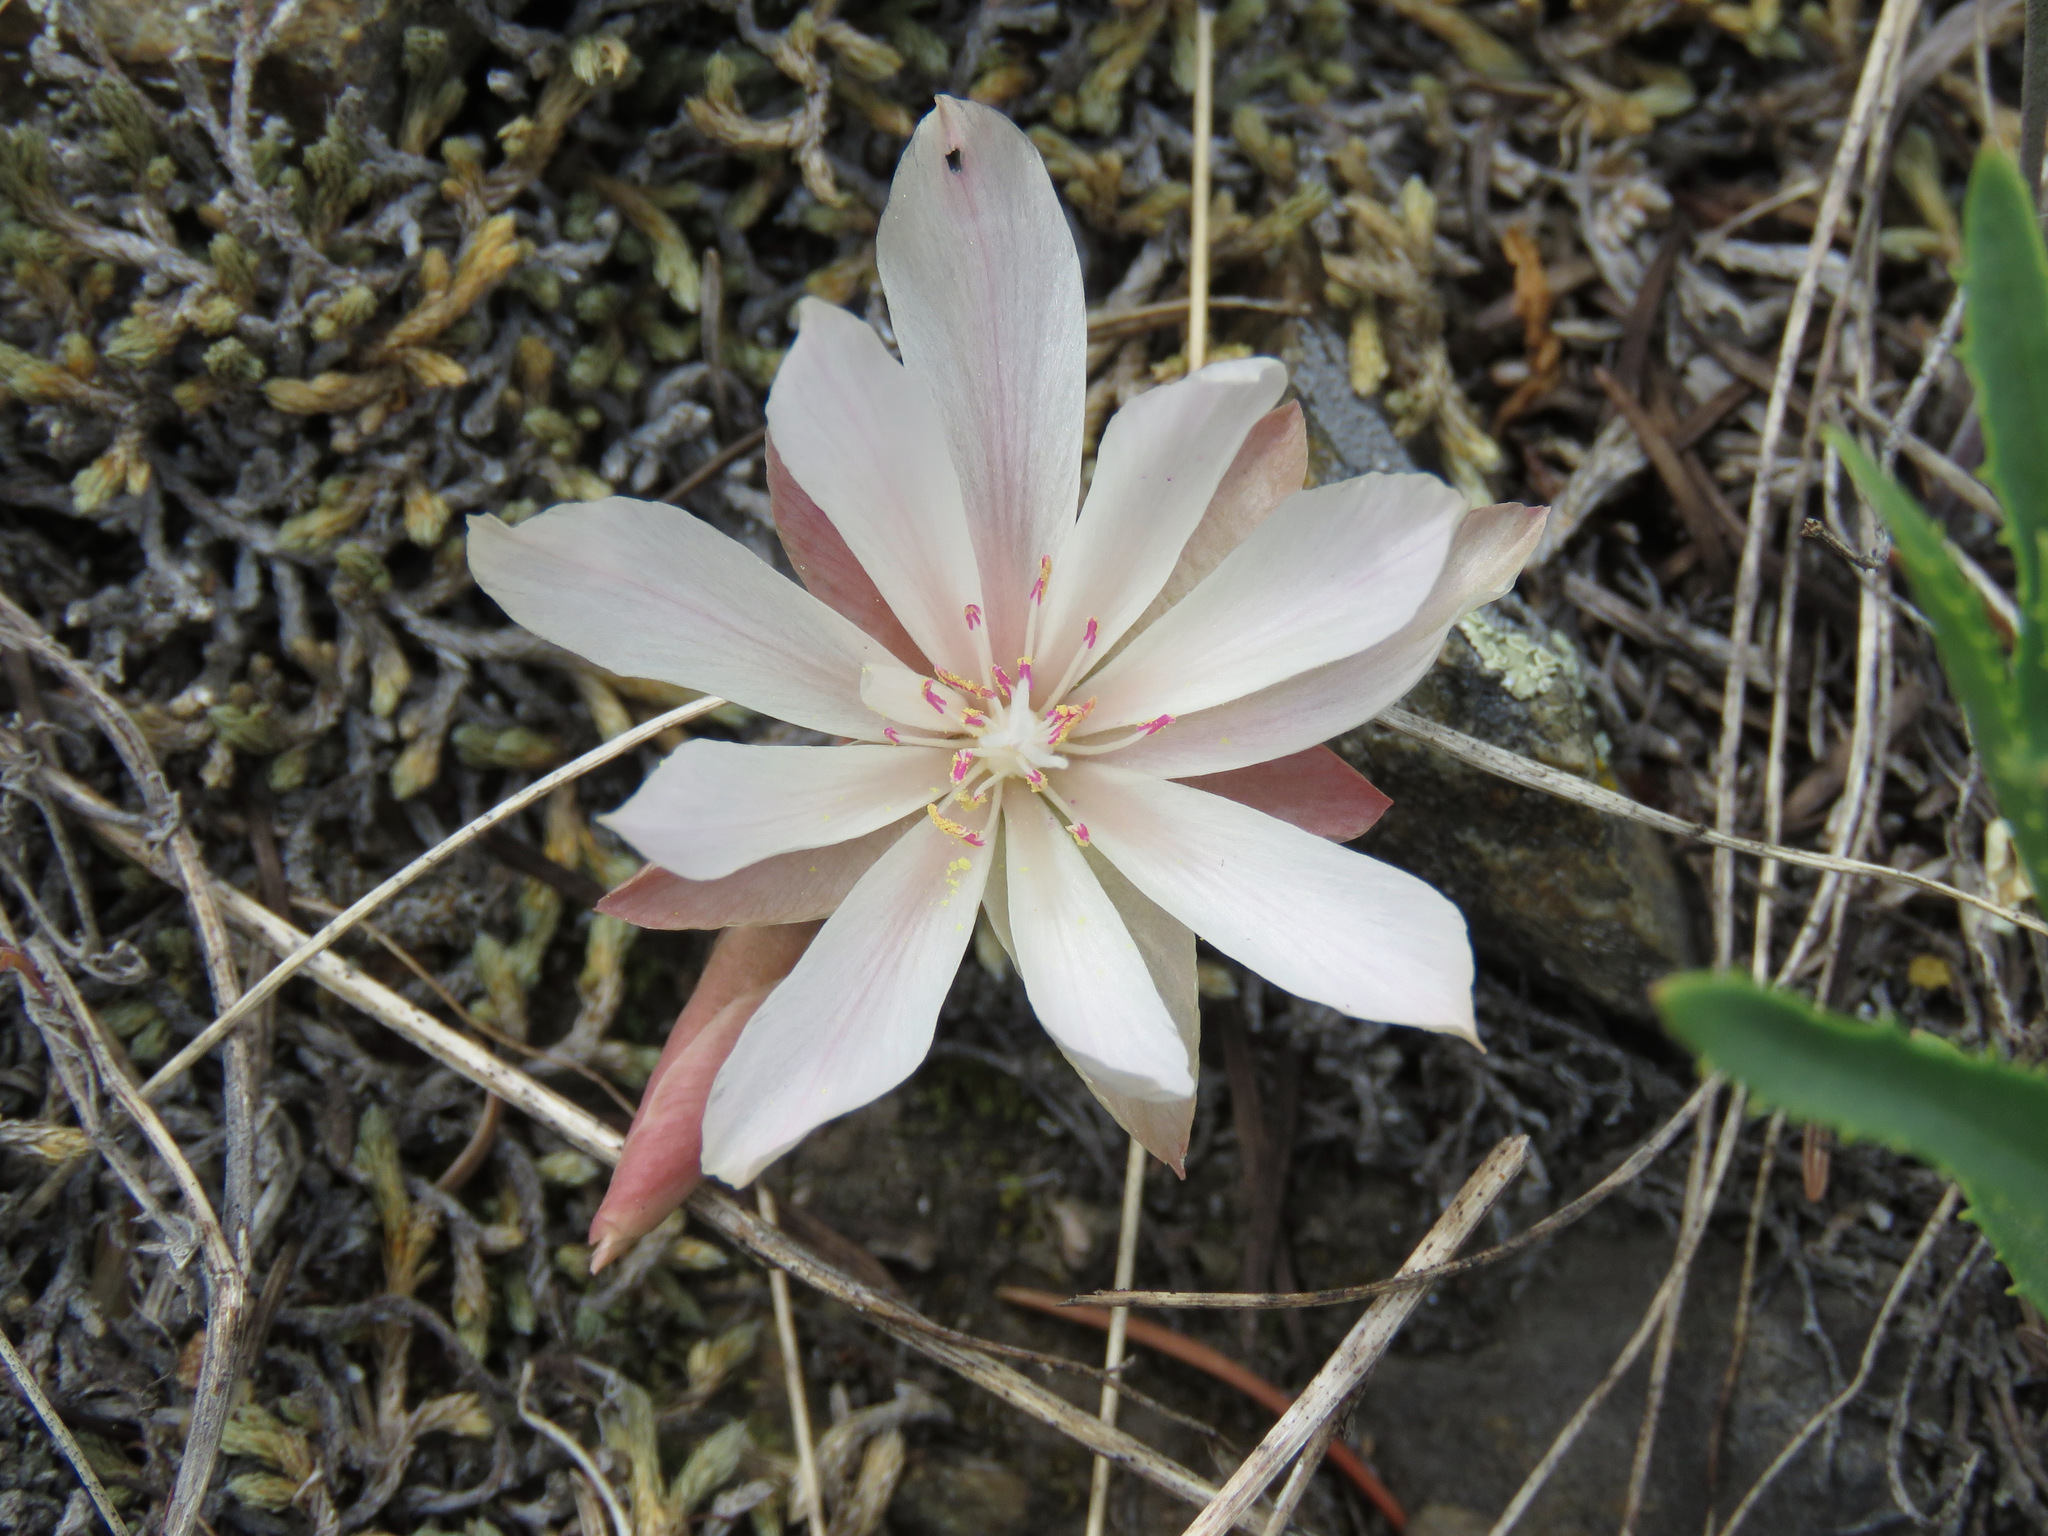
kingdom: Plantae
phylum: Tracheophyta
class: Magnoliopsida
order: Caryophyllales
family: Montiaceae
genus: Lewisia
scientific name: Lewisia rediviva
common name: Bitter-root
